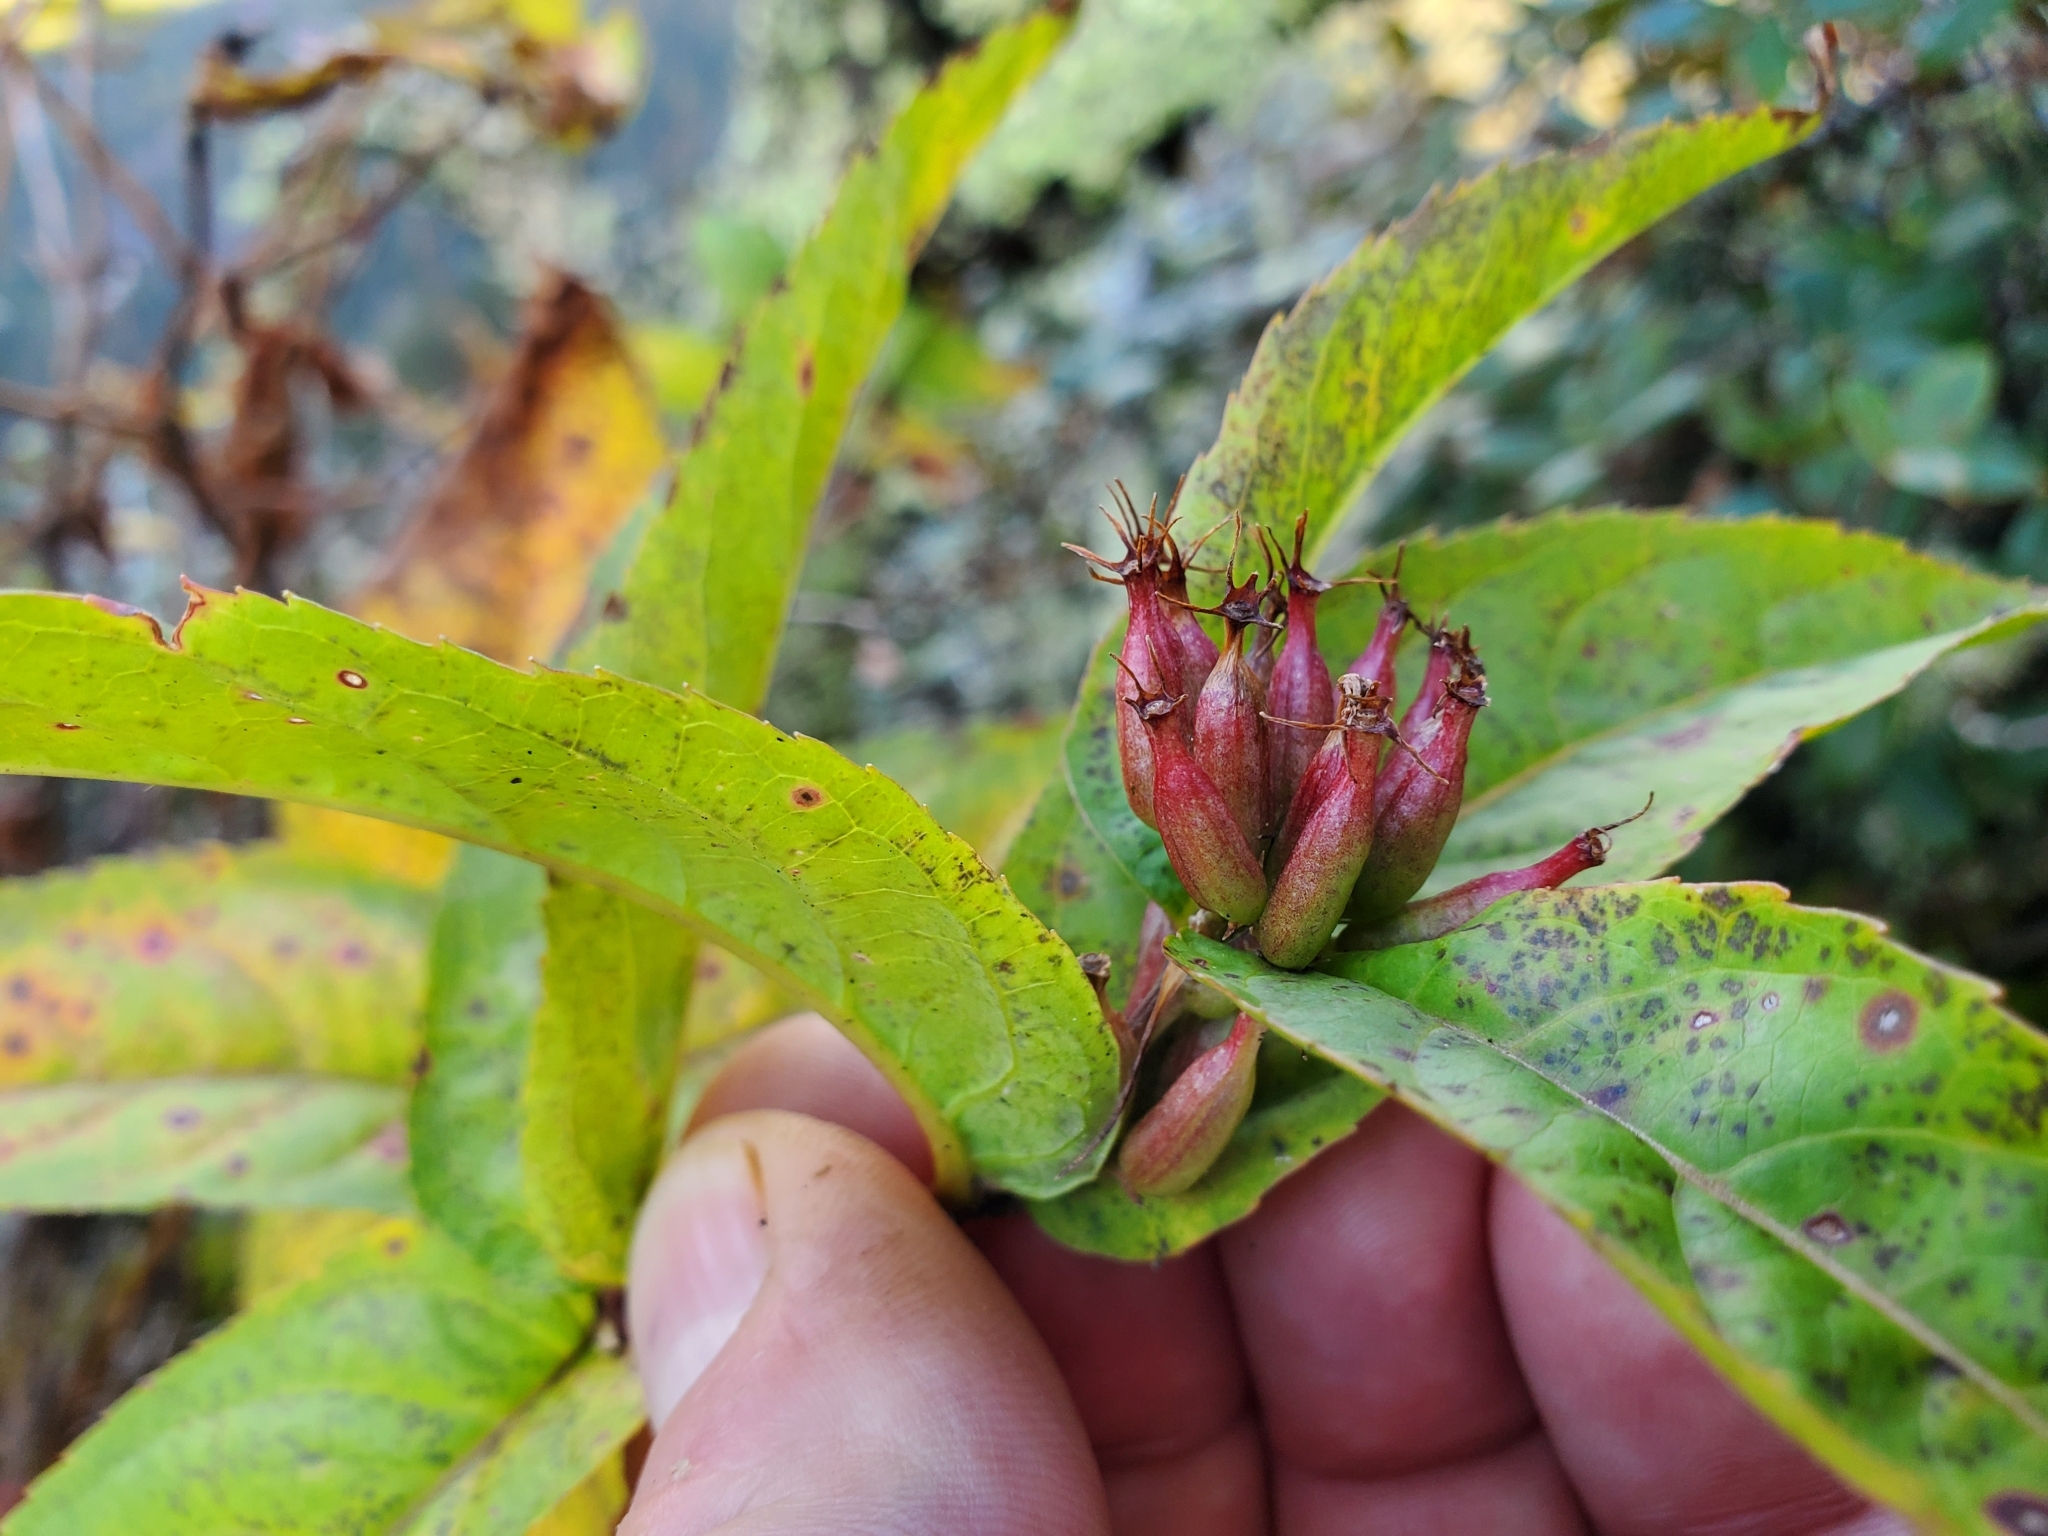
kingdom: Plantae
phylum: Tracheophyta
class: Magnoliopsida
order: Dipsacales
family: Caprifoliaceae
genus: Diervilla
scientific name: Diervilla sessilifolia
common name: Bush-honeysuckle
